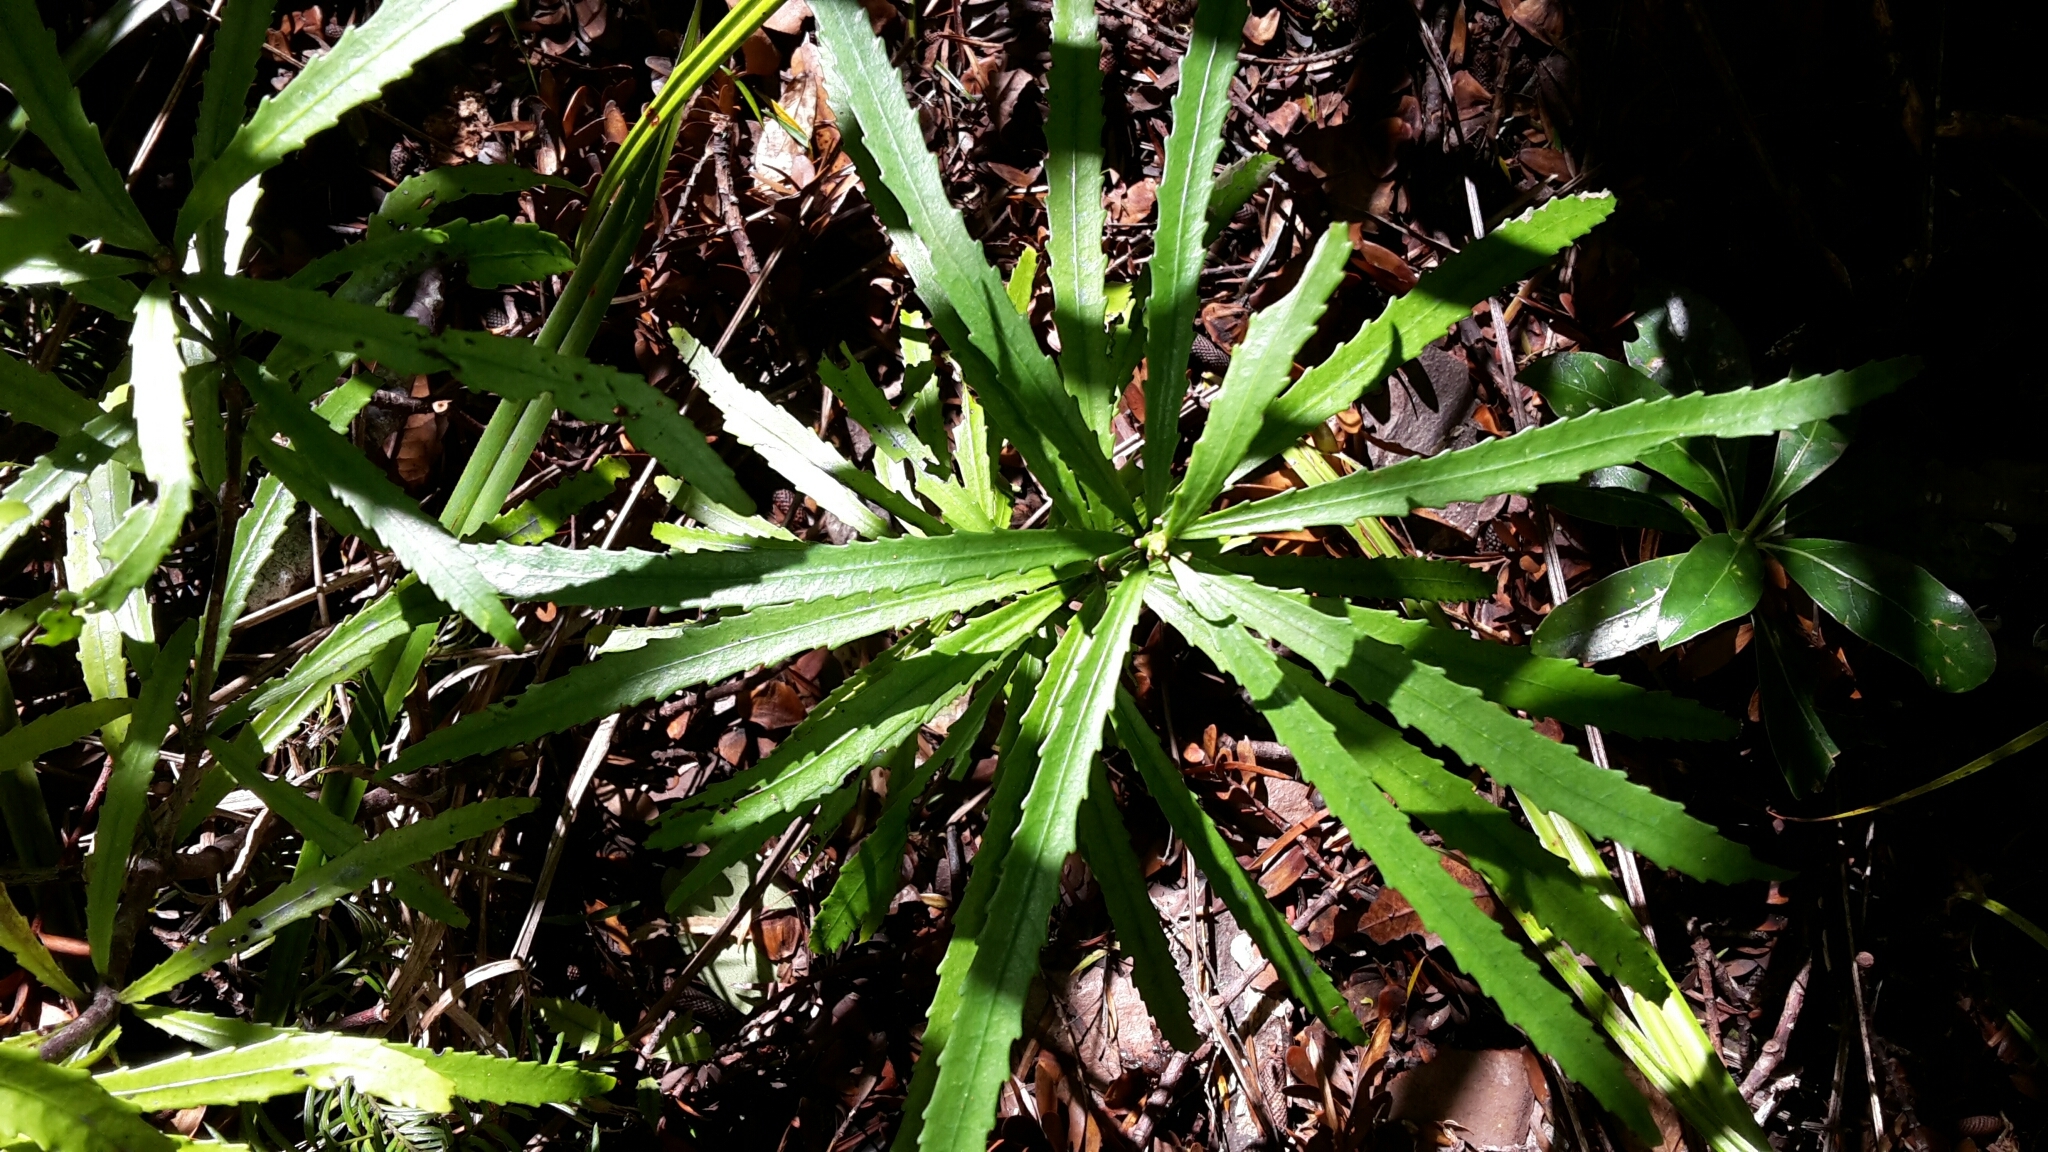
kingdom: Plantae
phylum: Tracheophyta
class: Magnoliopsida
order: Crossosomatales
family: Ixerbaceae
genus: Ixerba
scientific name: Ixerba brexioides
